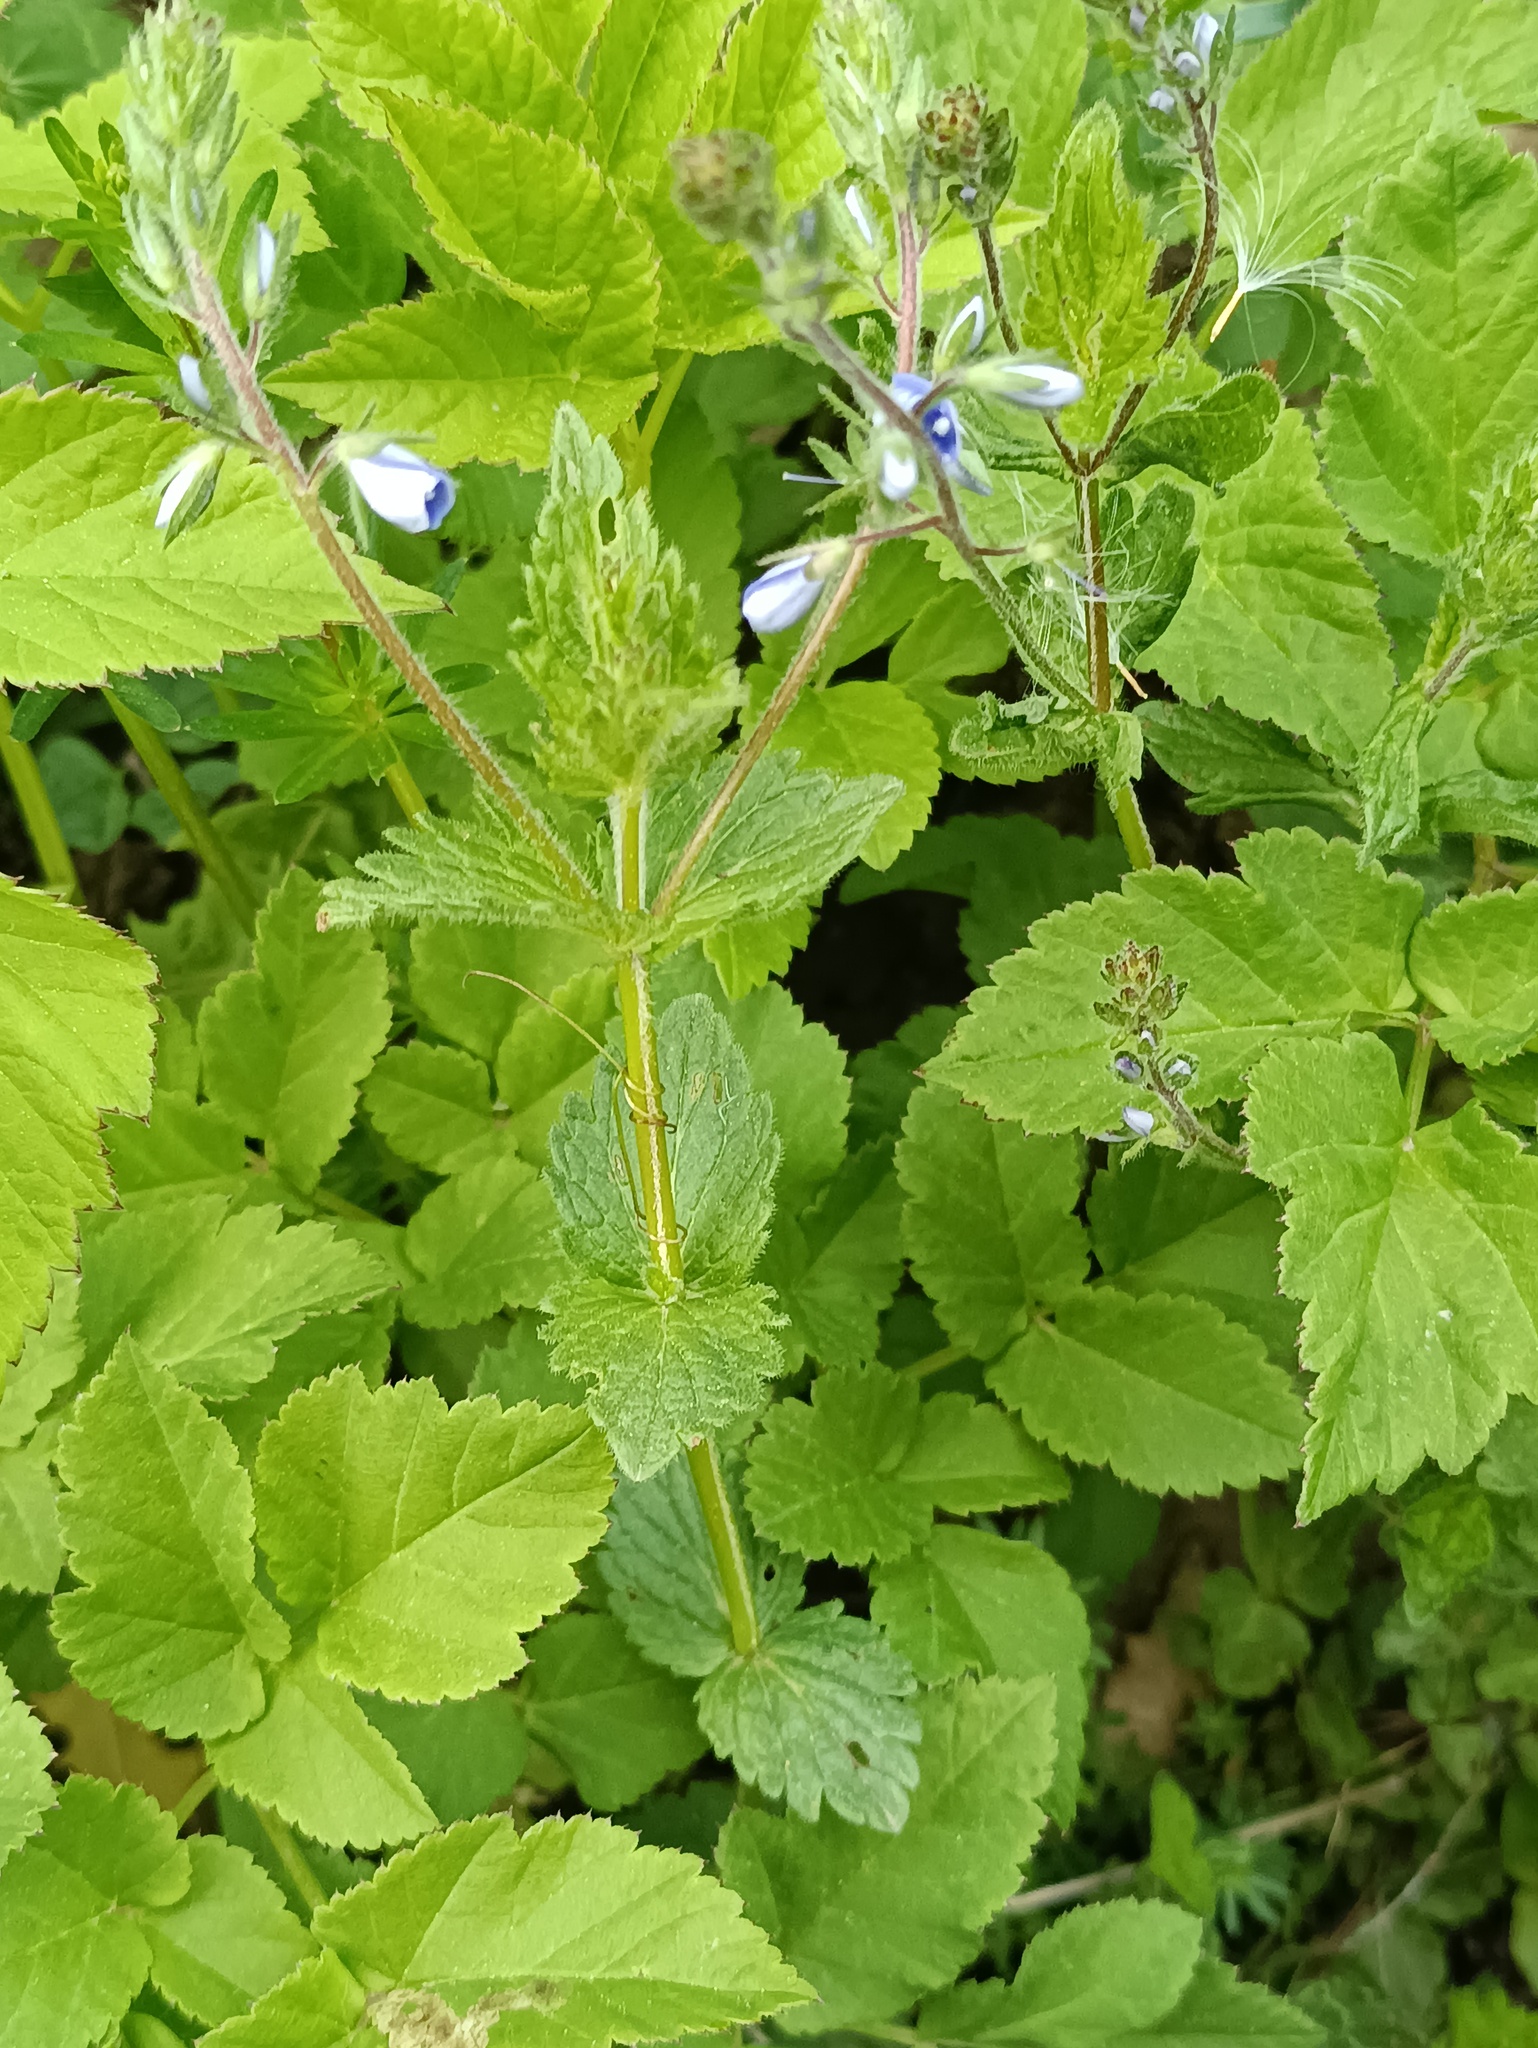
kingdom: Plantae
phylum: Tracheophyta
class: Magnoliopsida
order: Lamiales
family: Plantaginaceae
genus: Veronica
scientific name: Veronica chamaedrys
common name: Germander speedwell
